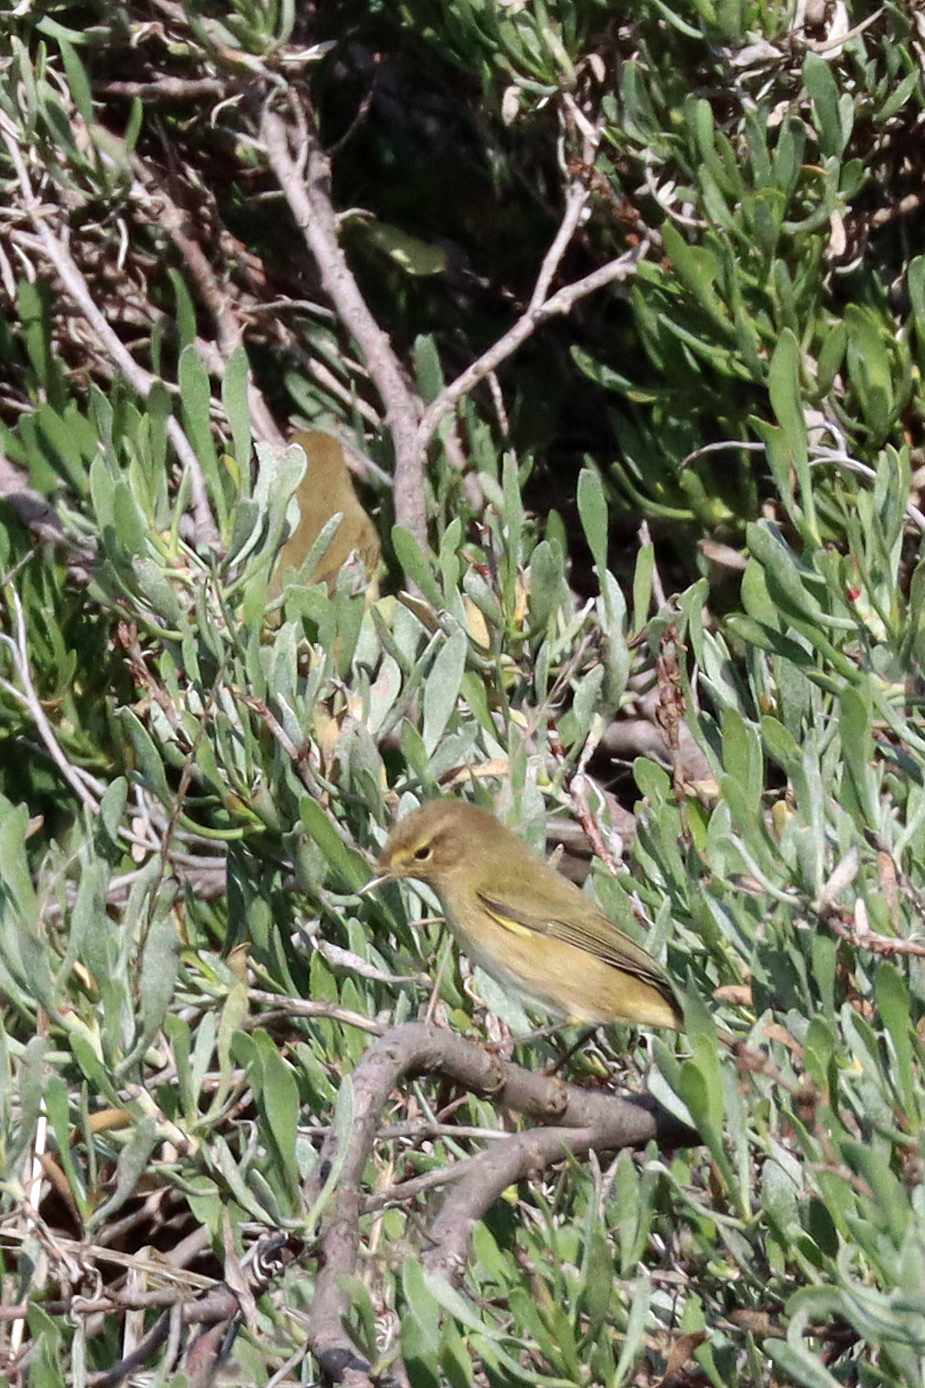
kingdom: Animalia
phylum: Chordata
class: Aves
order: Passeriformes
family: Phylloscopidae
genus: Phylloscopus
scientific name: Phylloscopus collybita
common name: Common chiffchaff
